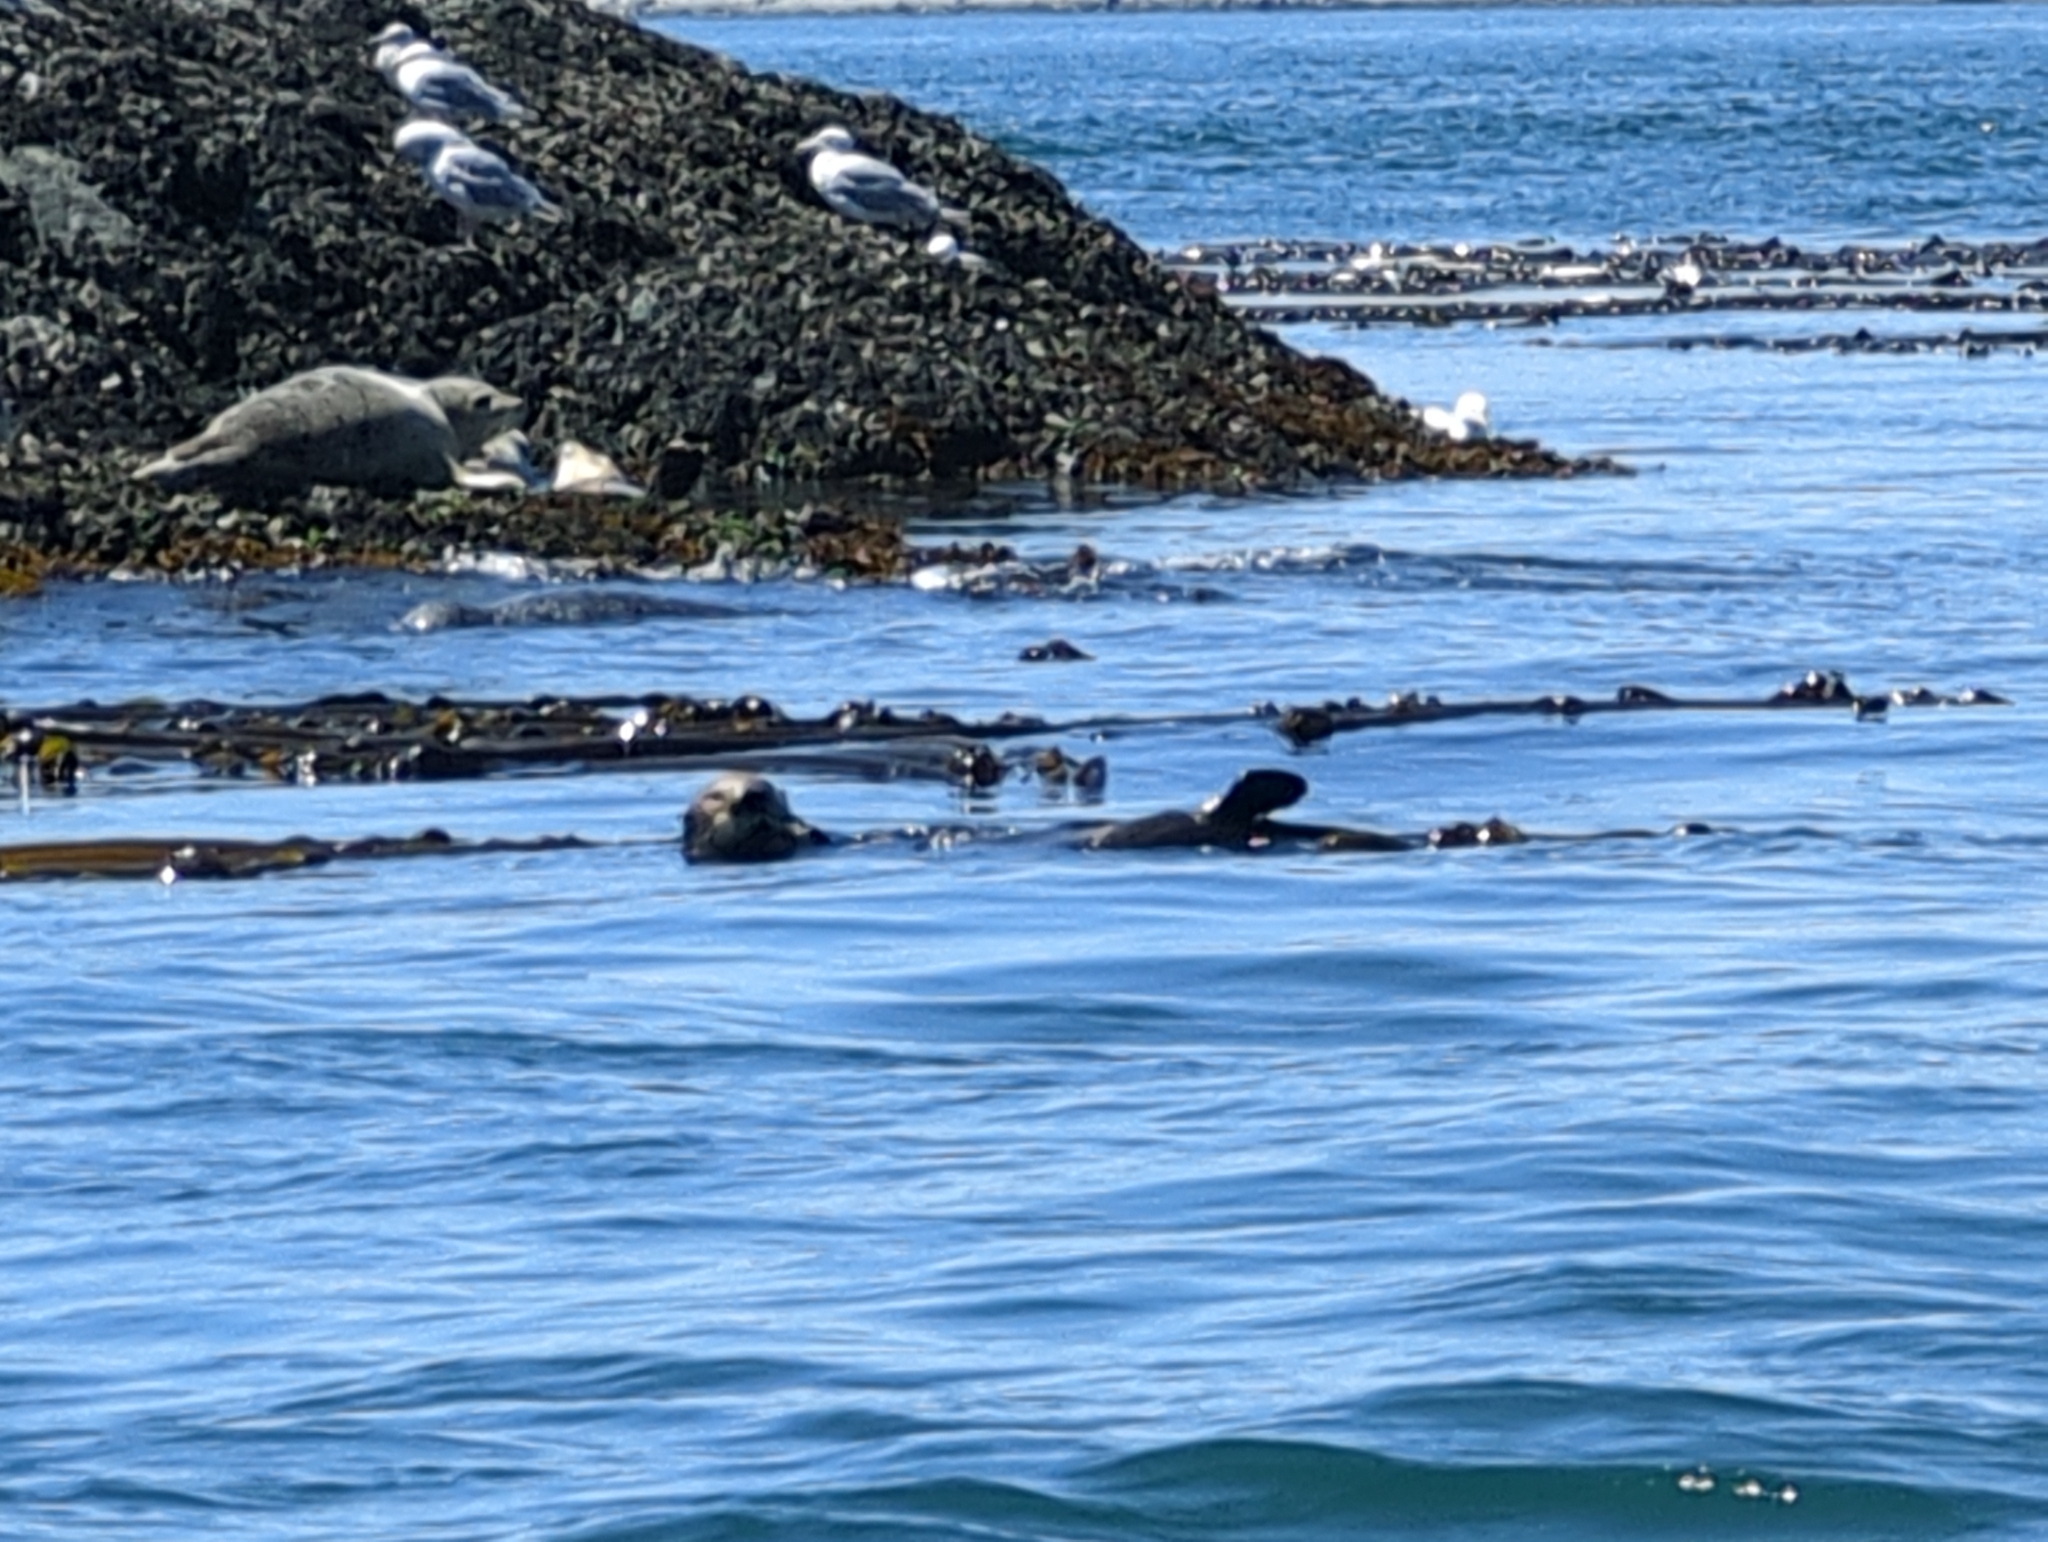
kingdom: Animalia
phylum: Chordata
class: Mammalia
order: Carnivora
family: Mustelidae
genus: Enhydra
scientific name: Enhydra lutris
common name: Sea otter
